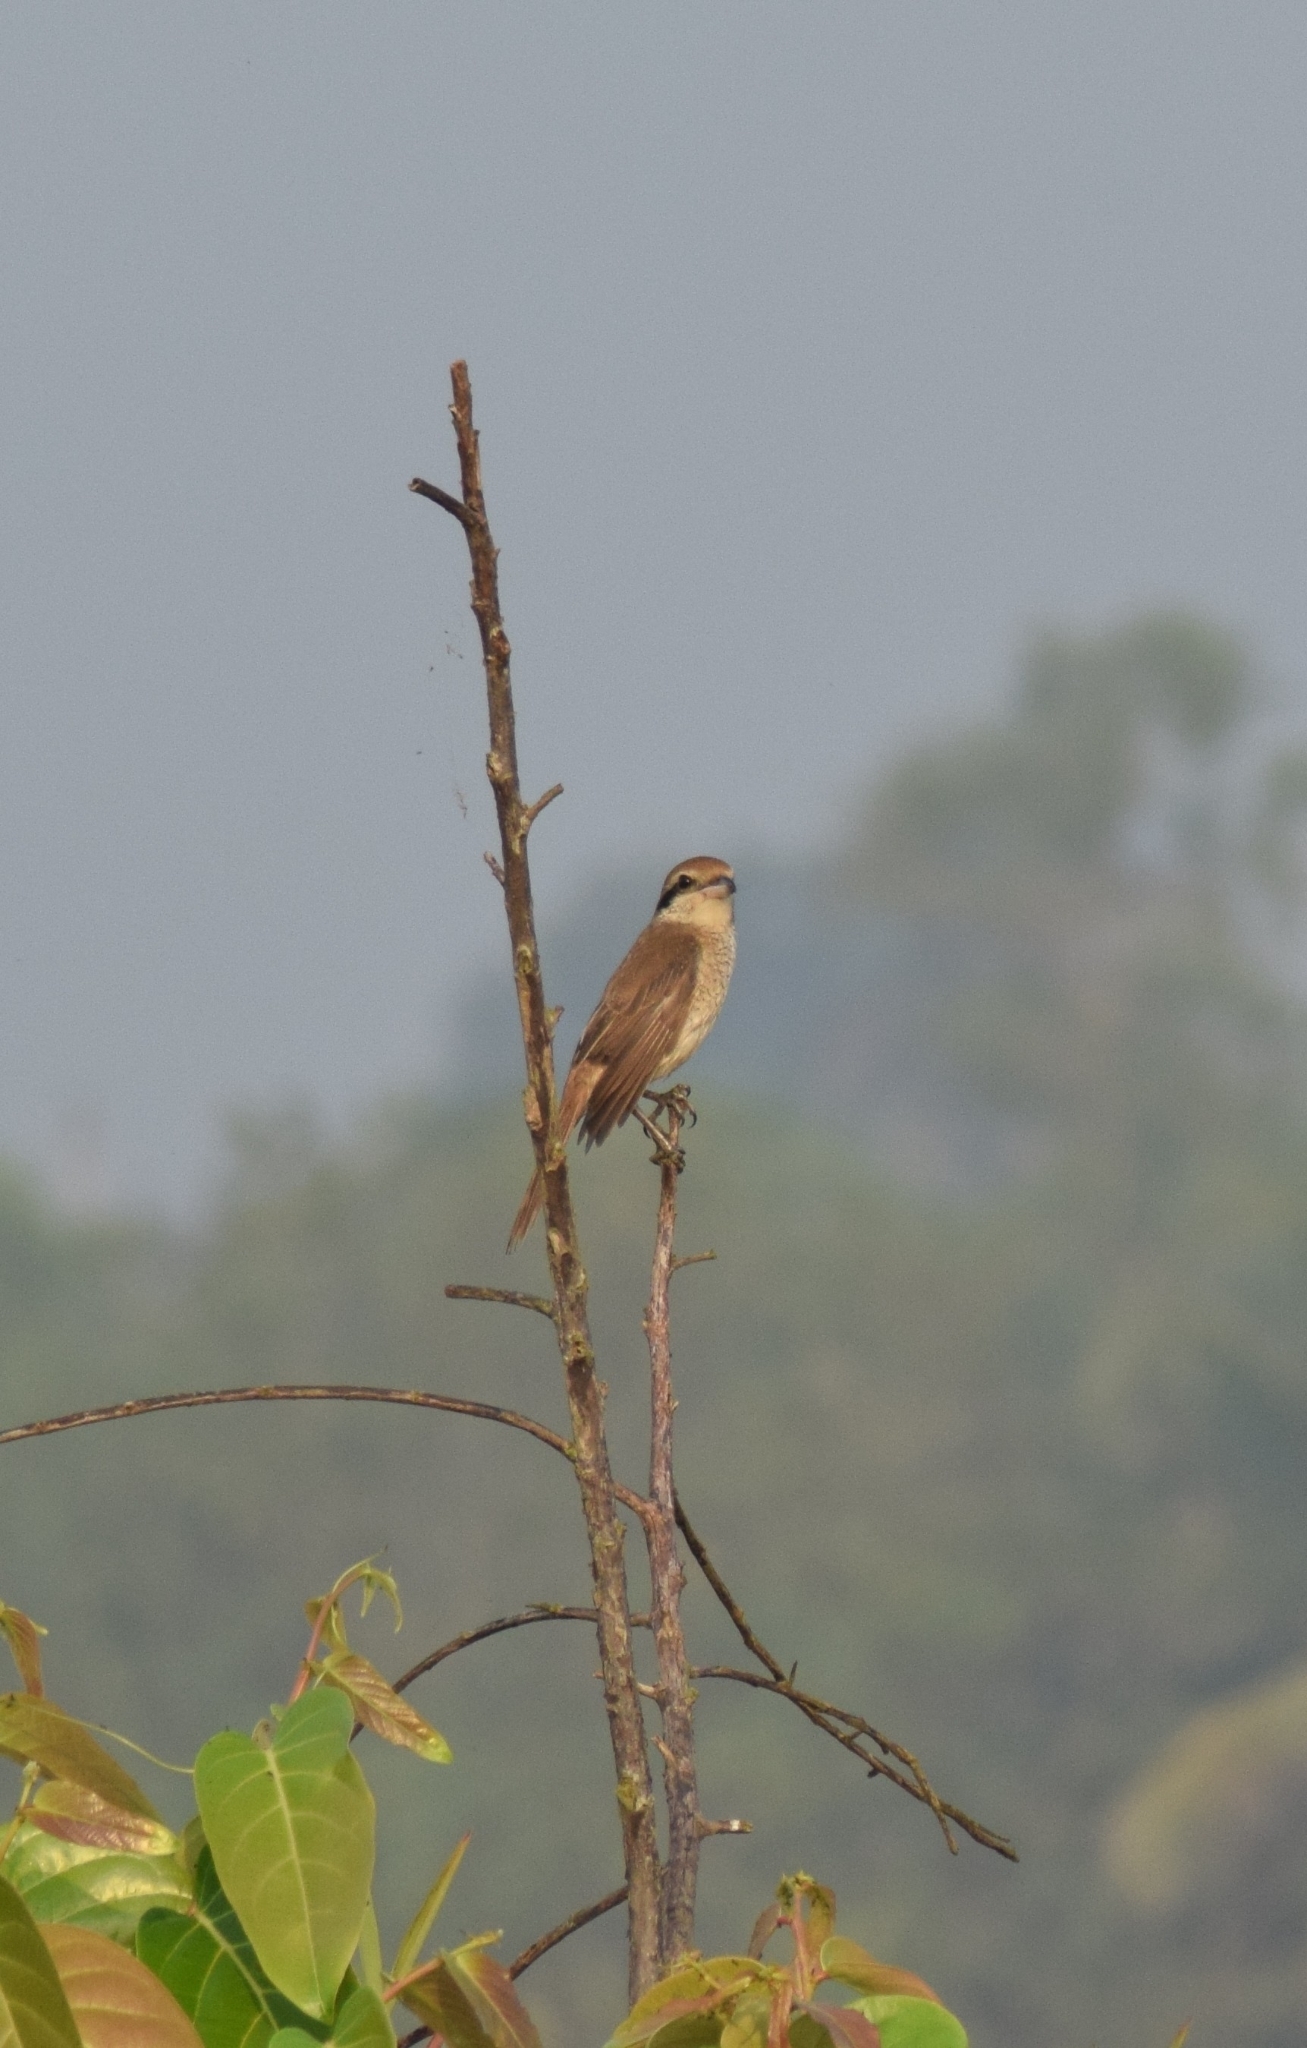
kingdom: Animalia
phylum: Chordata
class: Aves
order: Passeriformes
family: Laniidae
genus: Lanius
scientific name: Lanius cristatus
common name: Brown shrike
